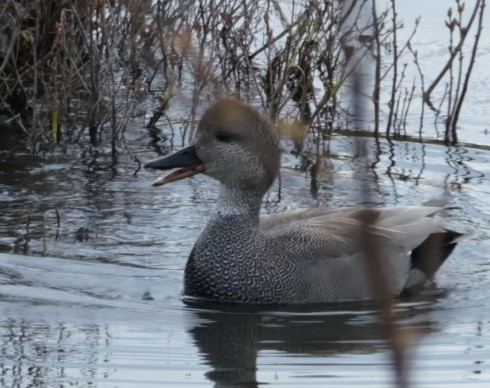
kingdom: Animalia
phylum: Chordata
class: Aves
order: Anseriformes
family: Anatidae
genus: Mareca
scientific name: Mareca strepera
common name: Gadwall
